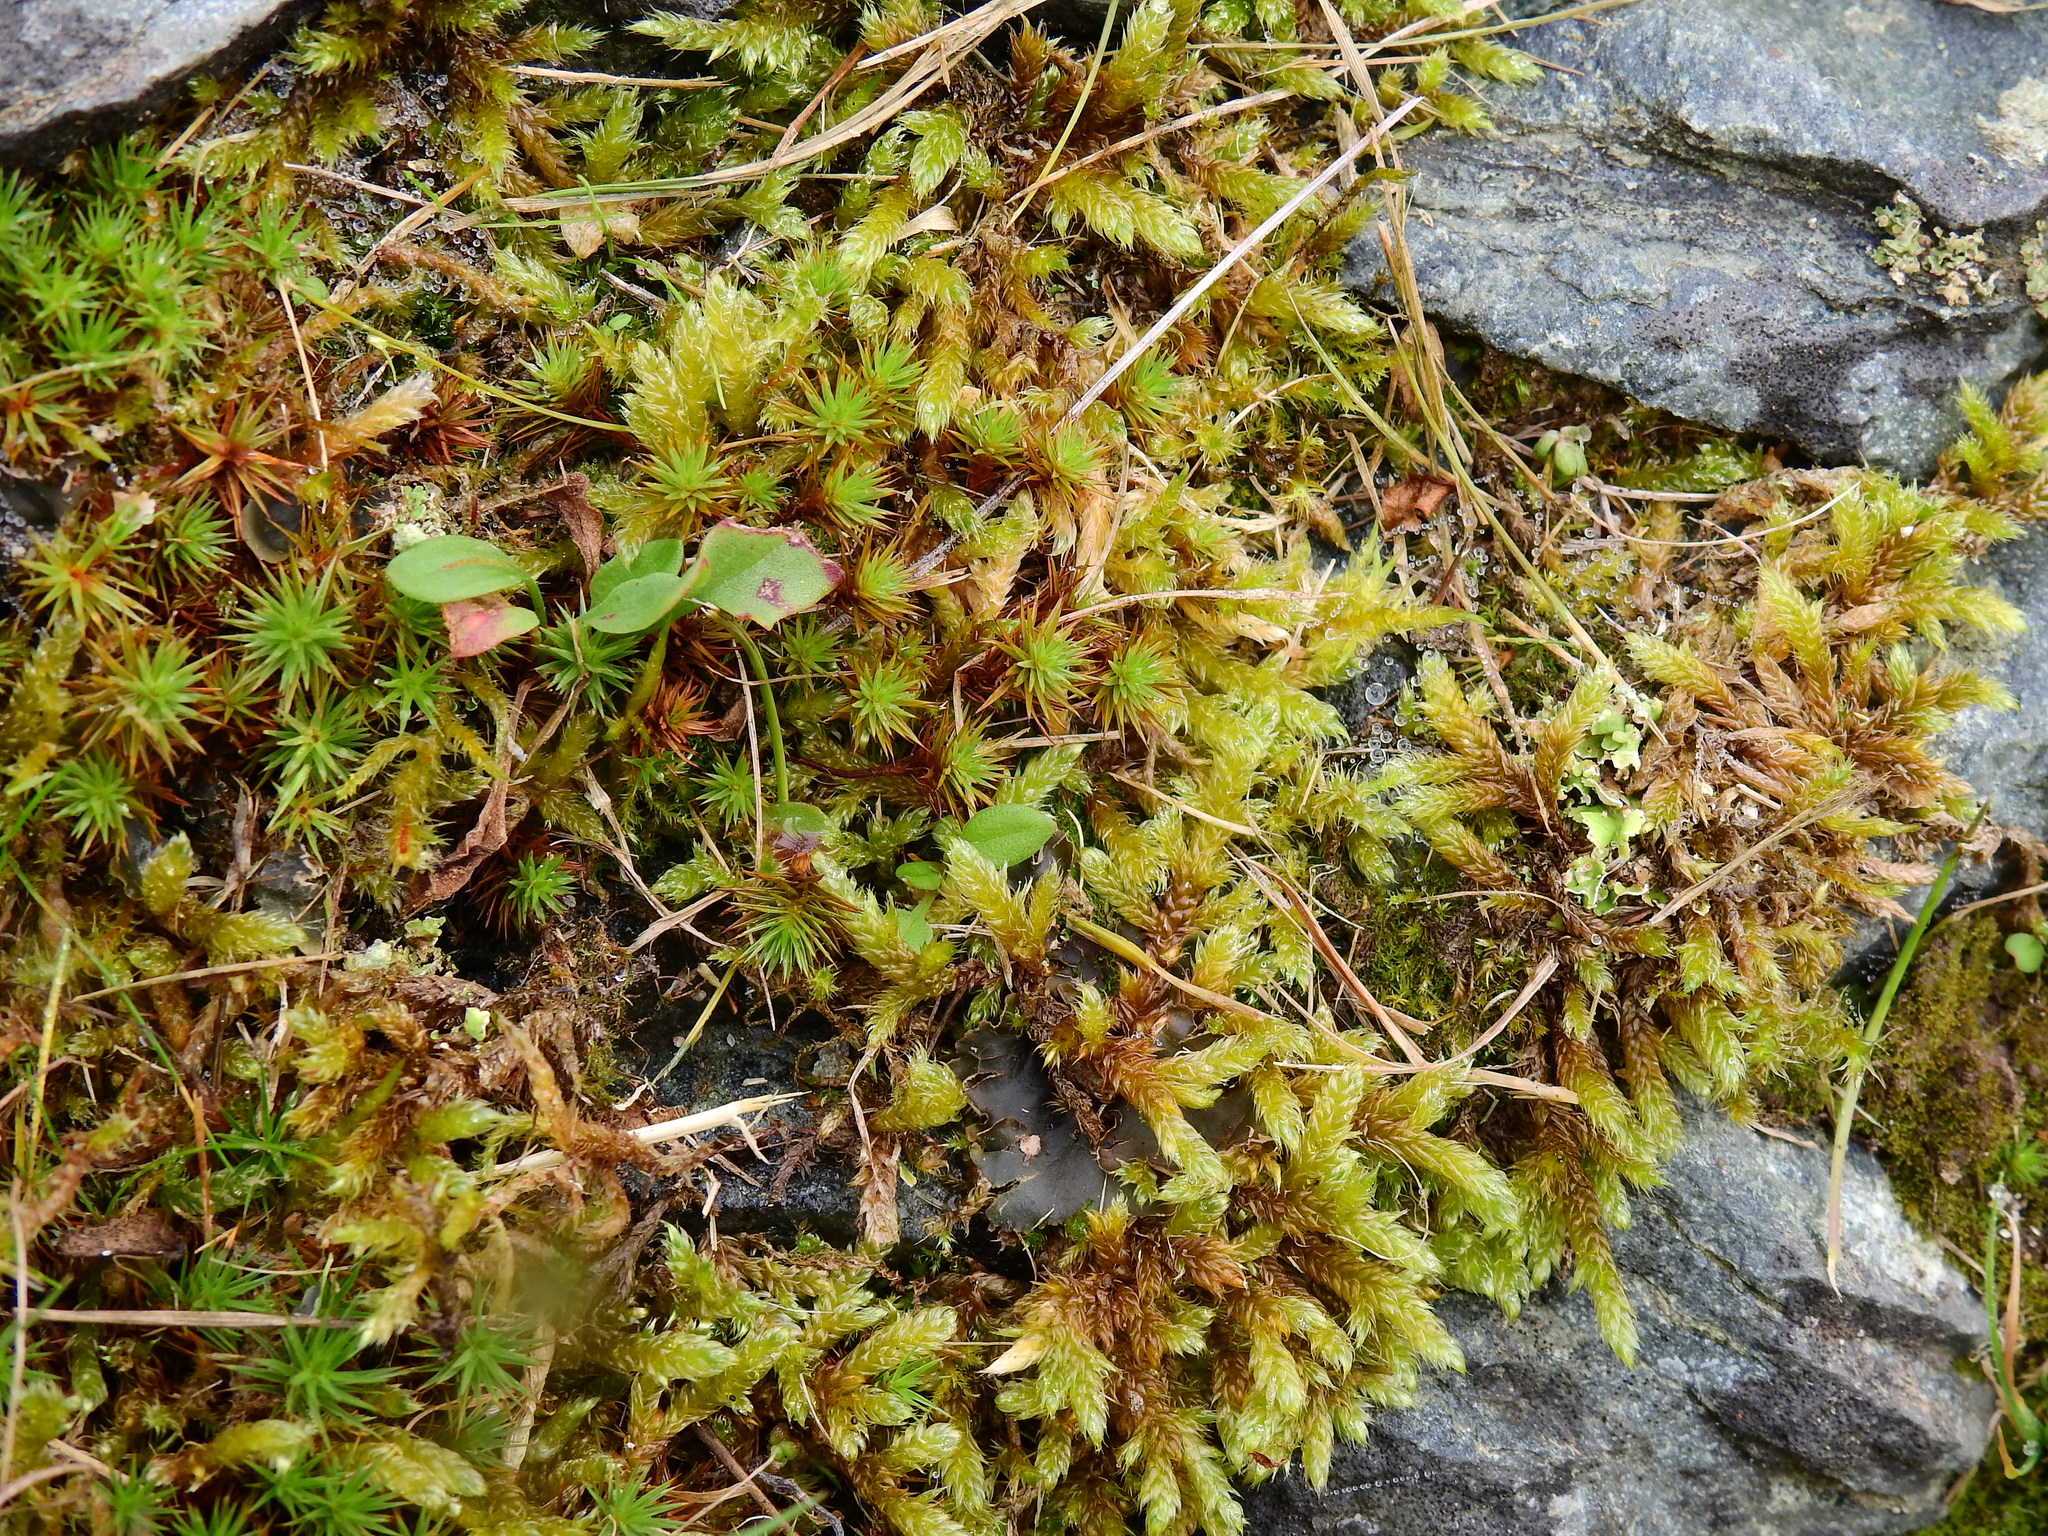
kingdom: Plantae
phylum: Bryophyta
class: Bryopsida
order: Hypnales
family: Hypnaceae
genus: Hypnum
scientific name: Hypnum cupressiforme
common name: Cypress-leaved plait-moss
